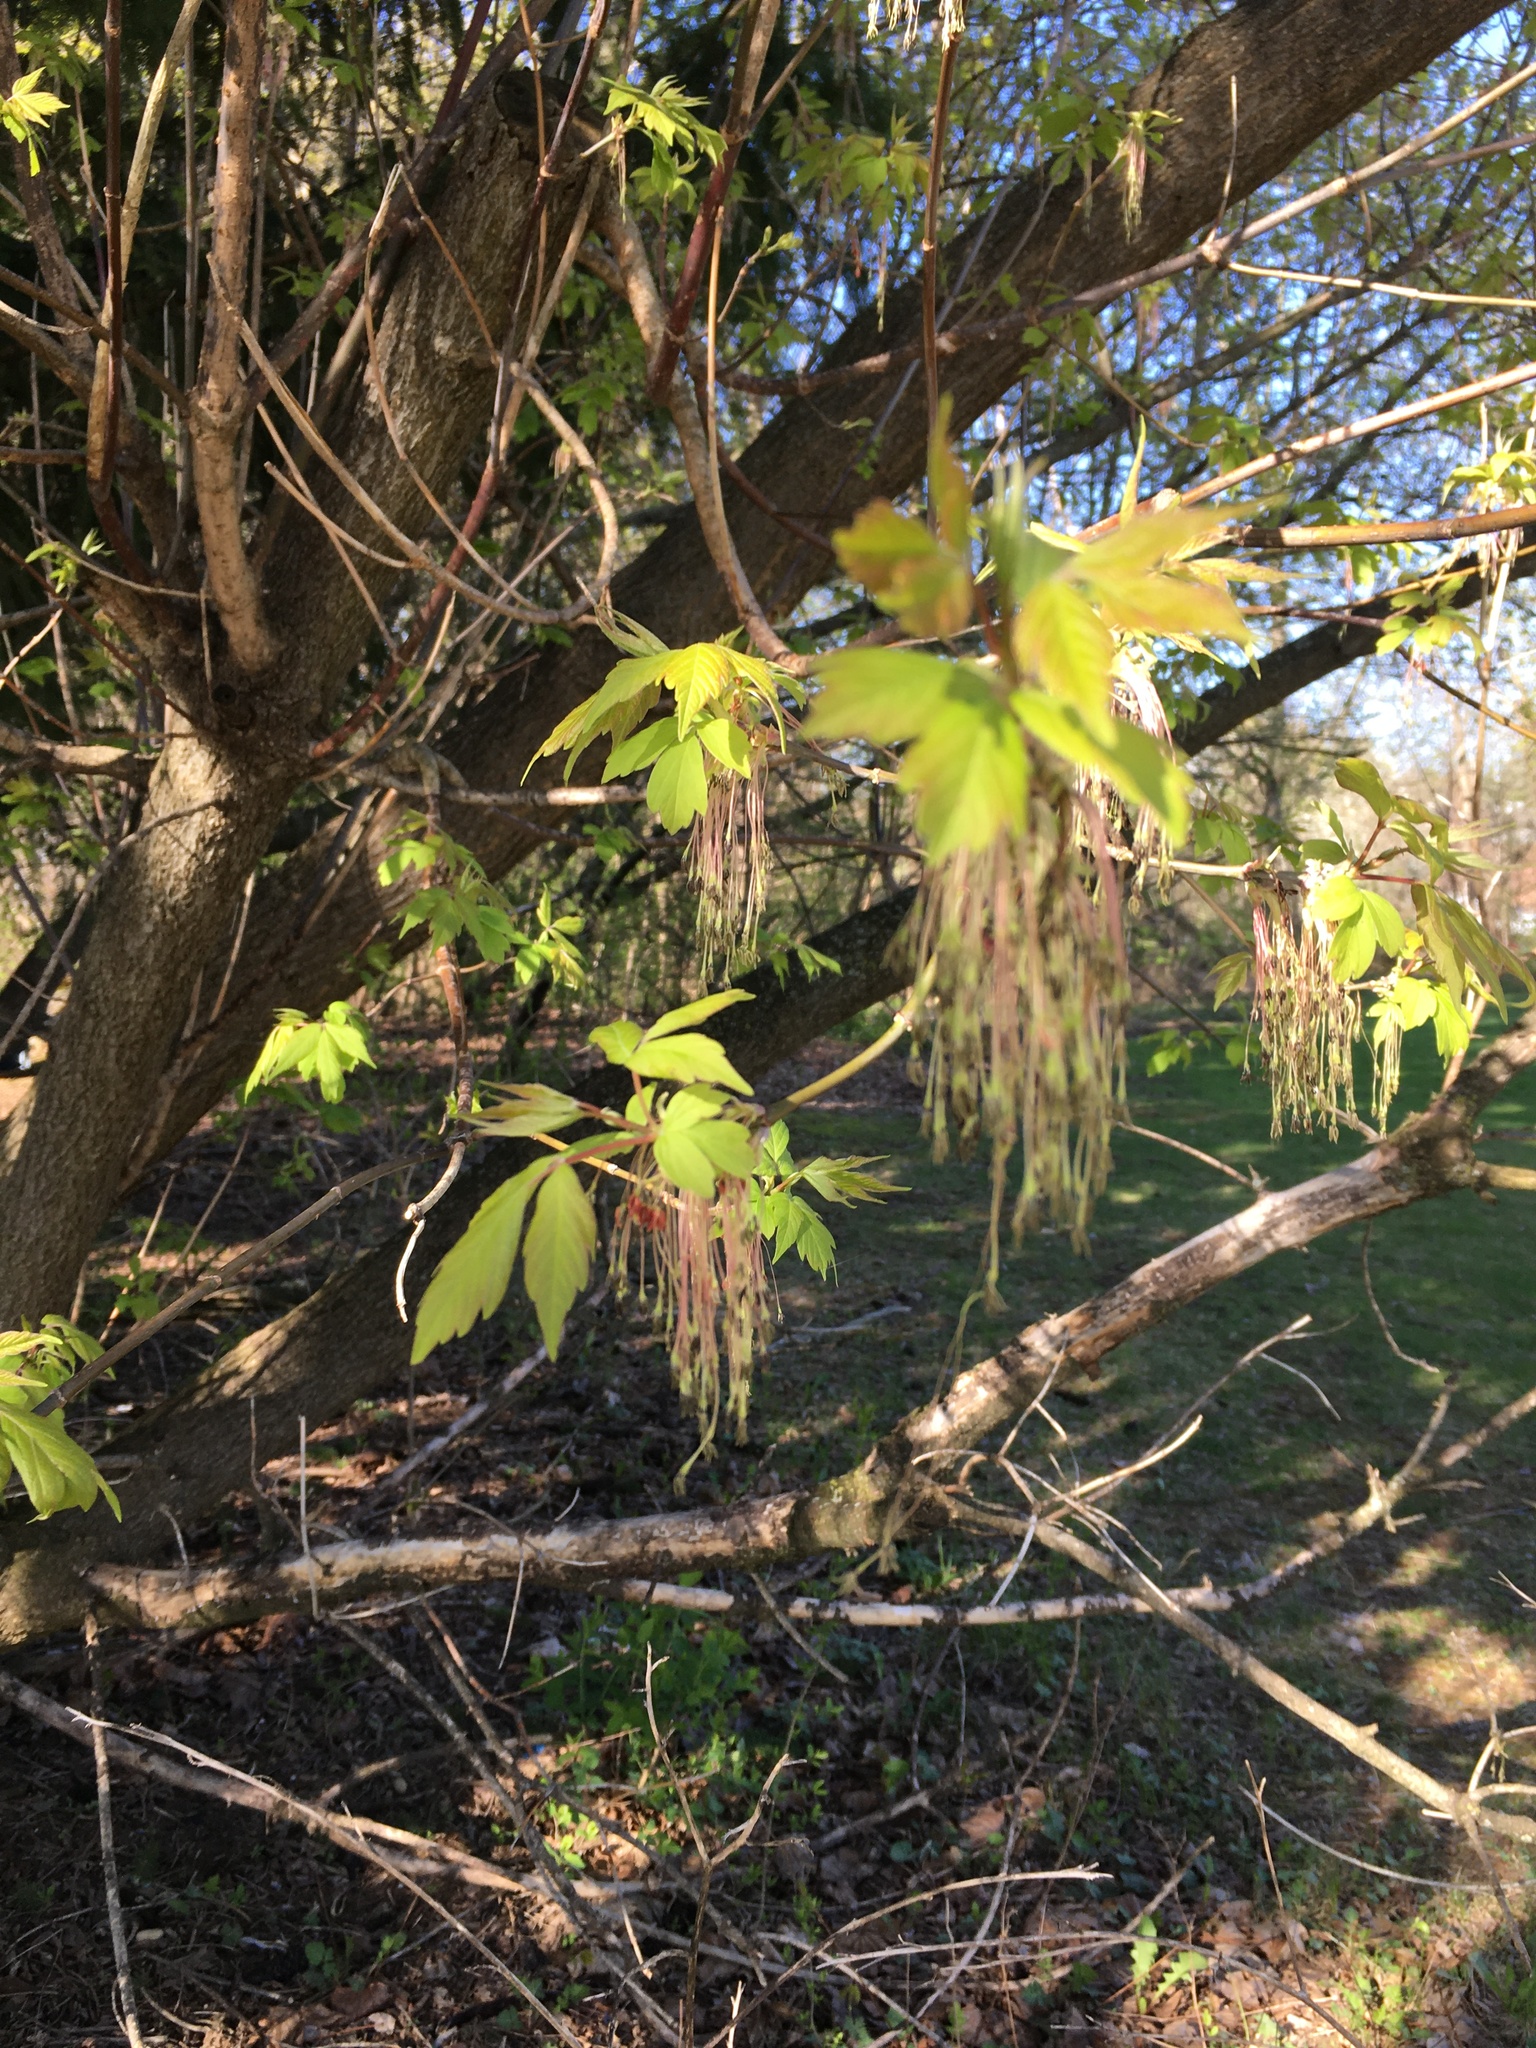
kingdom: Plantae
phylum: Tracheophyta
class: Magnoliopsida
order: Sapindales
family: Sapindaceae
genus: Acer
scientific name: Acer negundo
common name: Ashleaf maple
